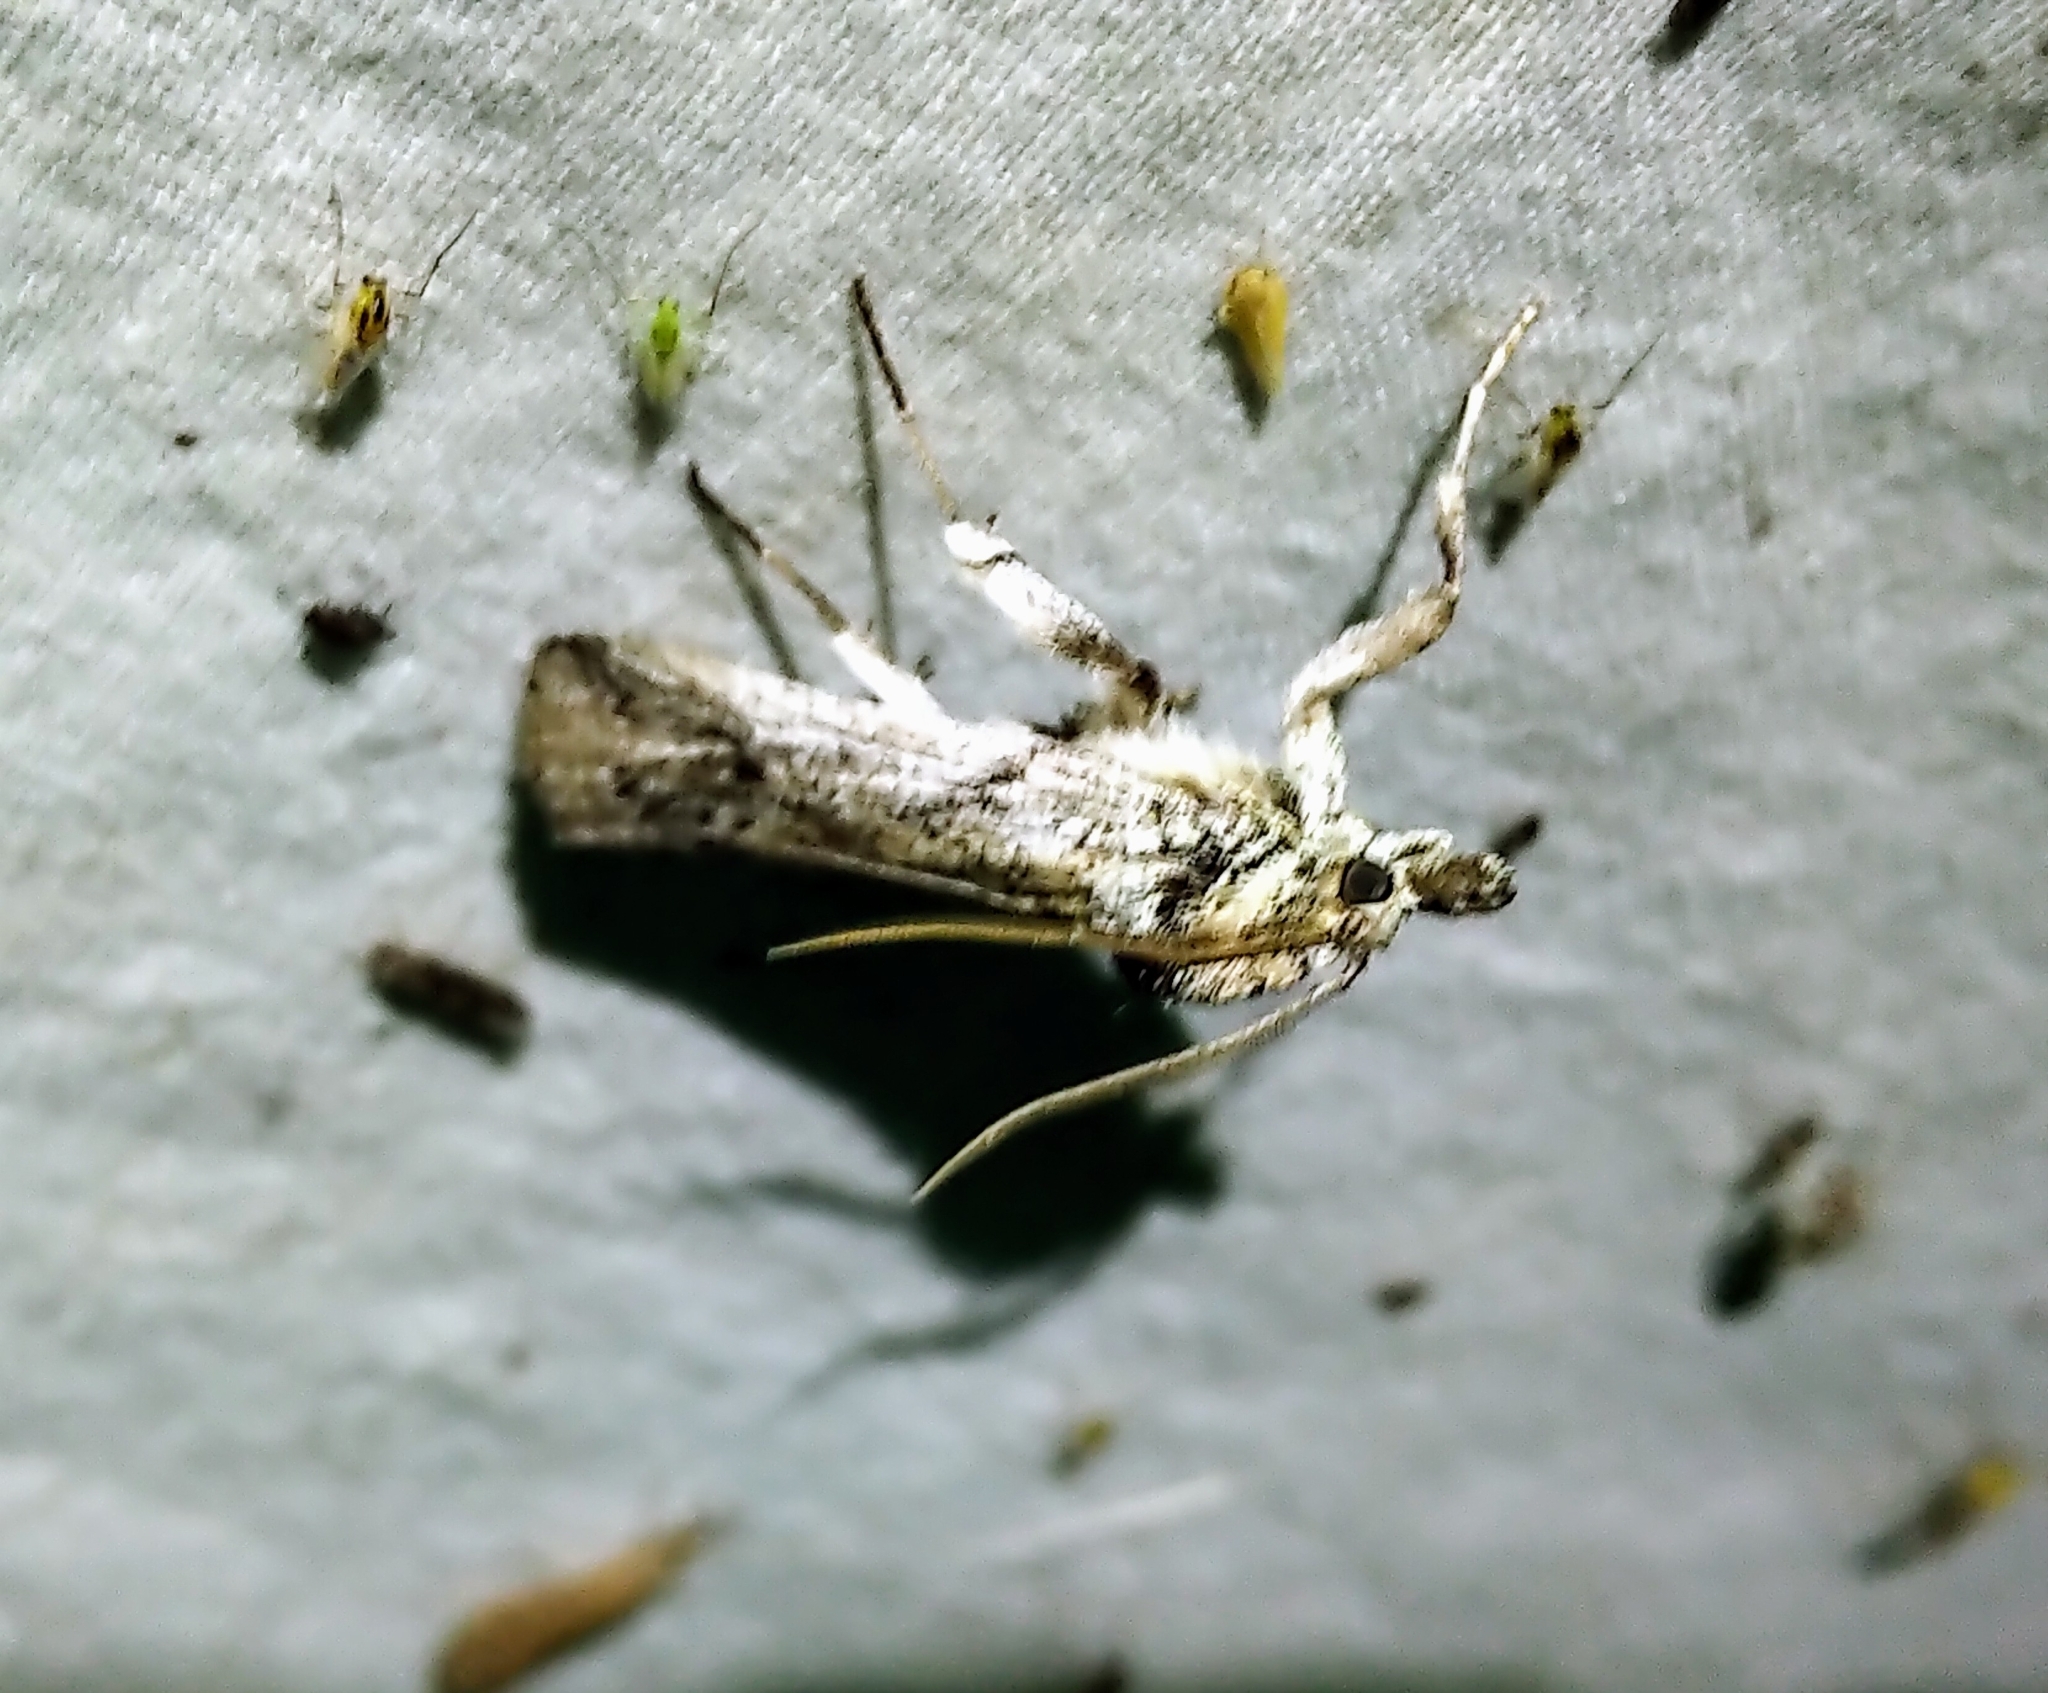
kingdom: Animalia
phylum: Arthropoda
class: Insecta
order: Lepidoptera
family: Pyralidae
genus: Melitara
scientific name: Melitara dentata
